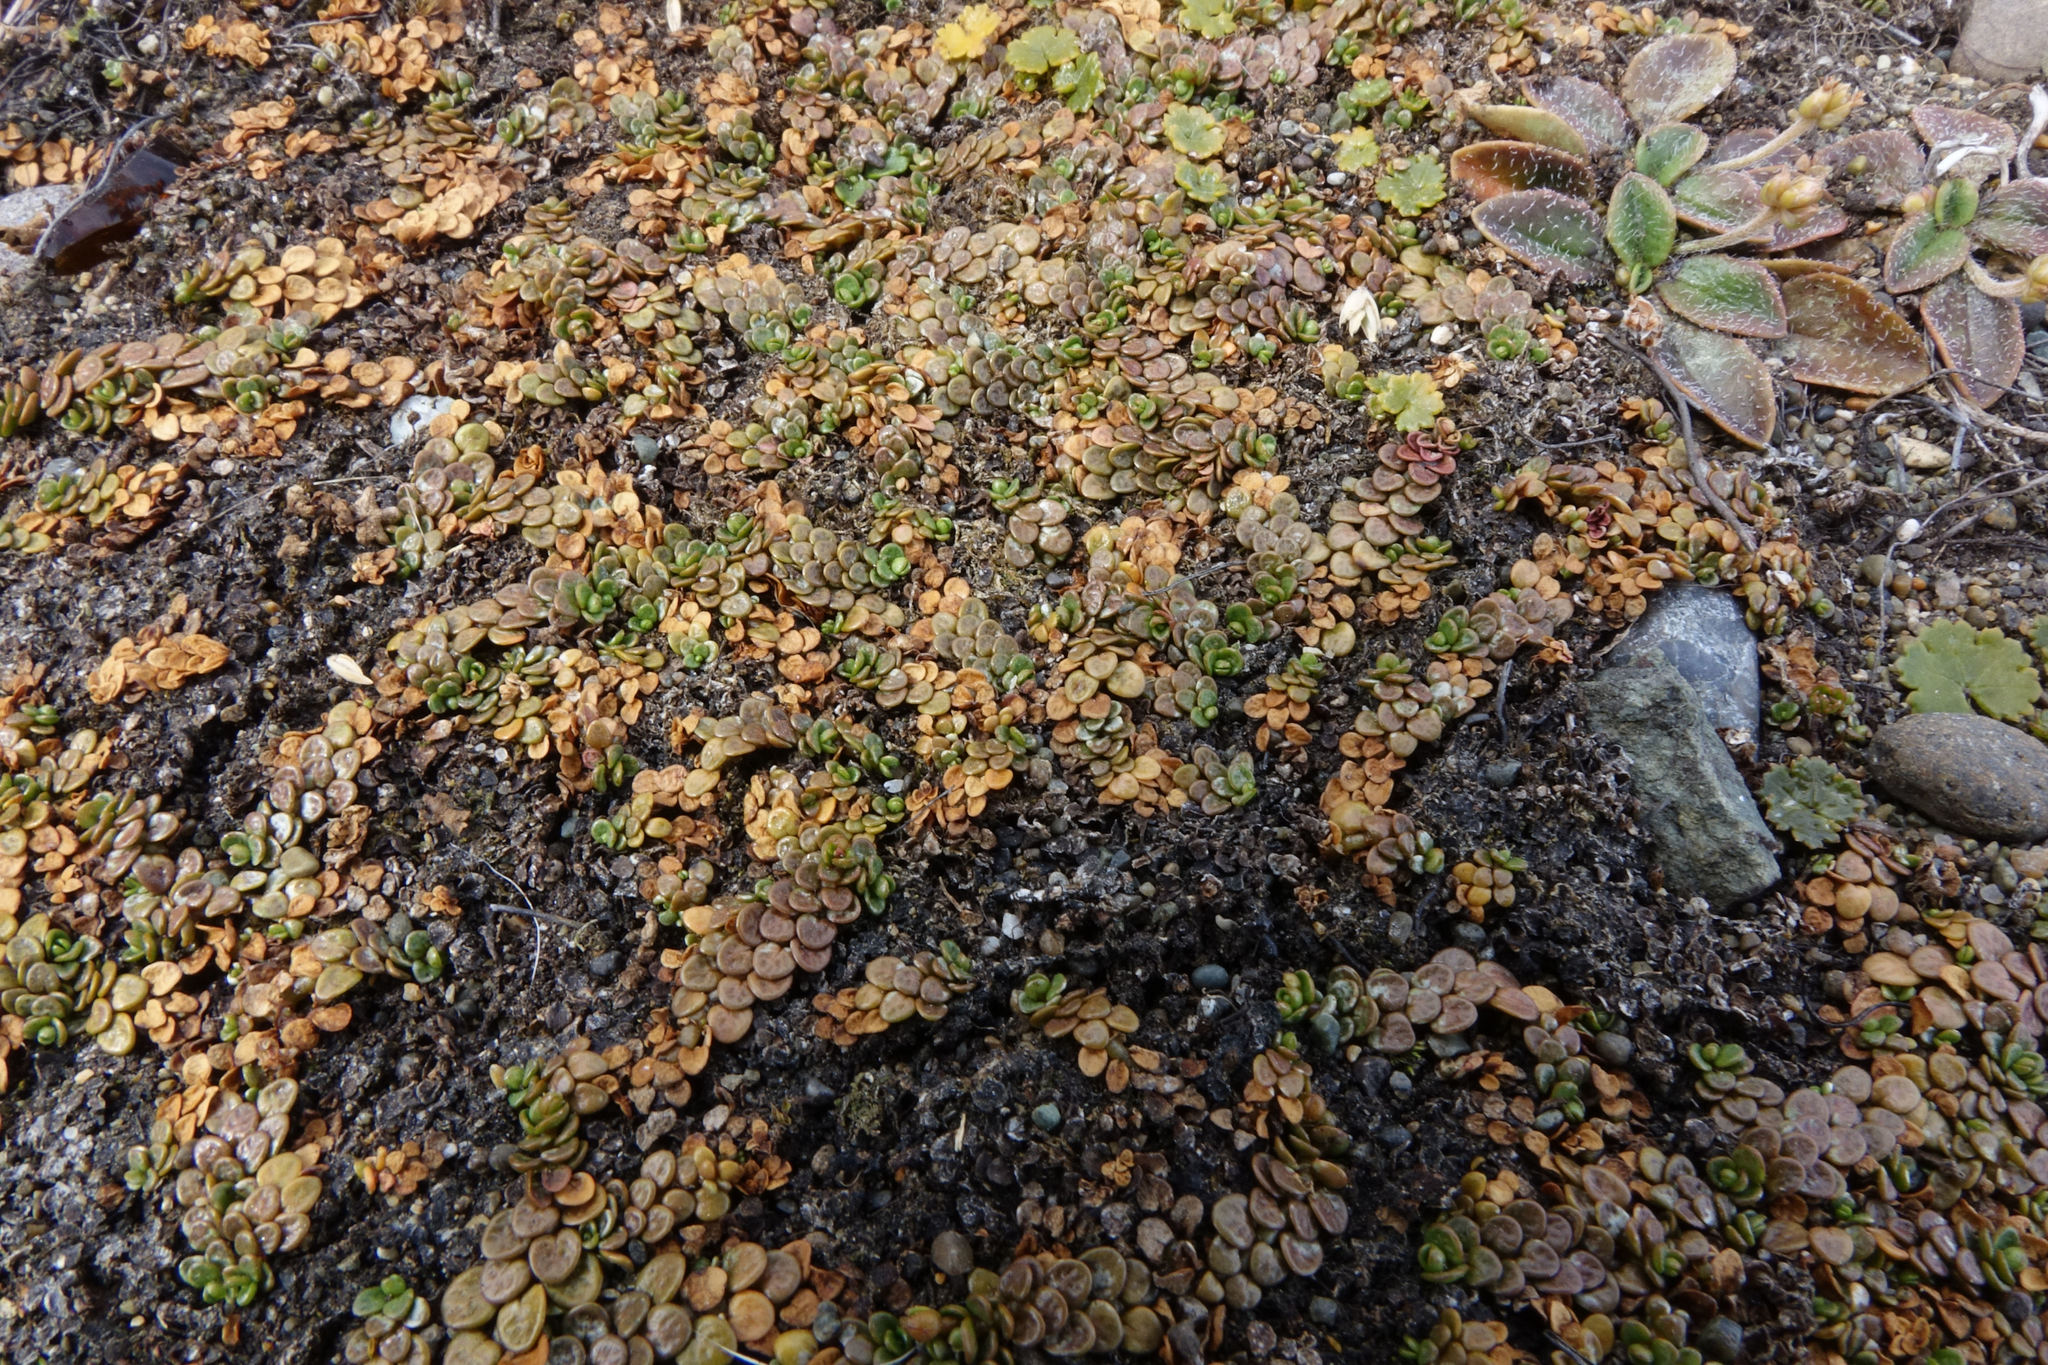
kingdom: Plantae
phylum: Tracheophyta
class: Magnoliopsida
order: Myrtales
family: Onagraceae
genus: Epilobium
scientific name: Epilobium komarovianum
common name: Bronzy willowherb
